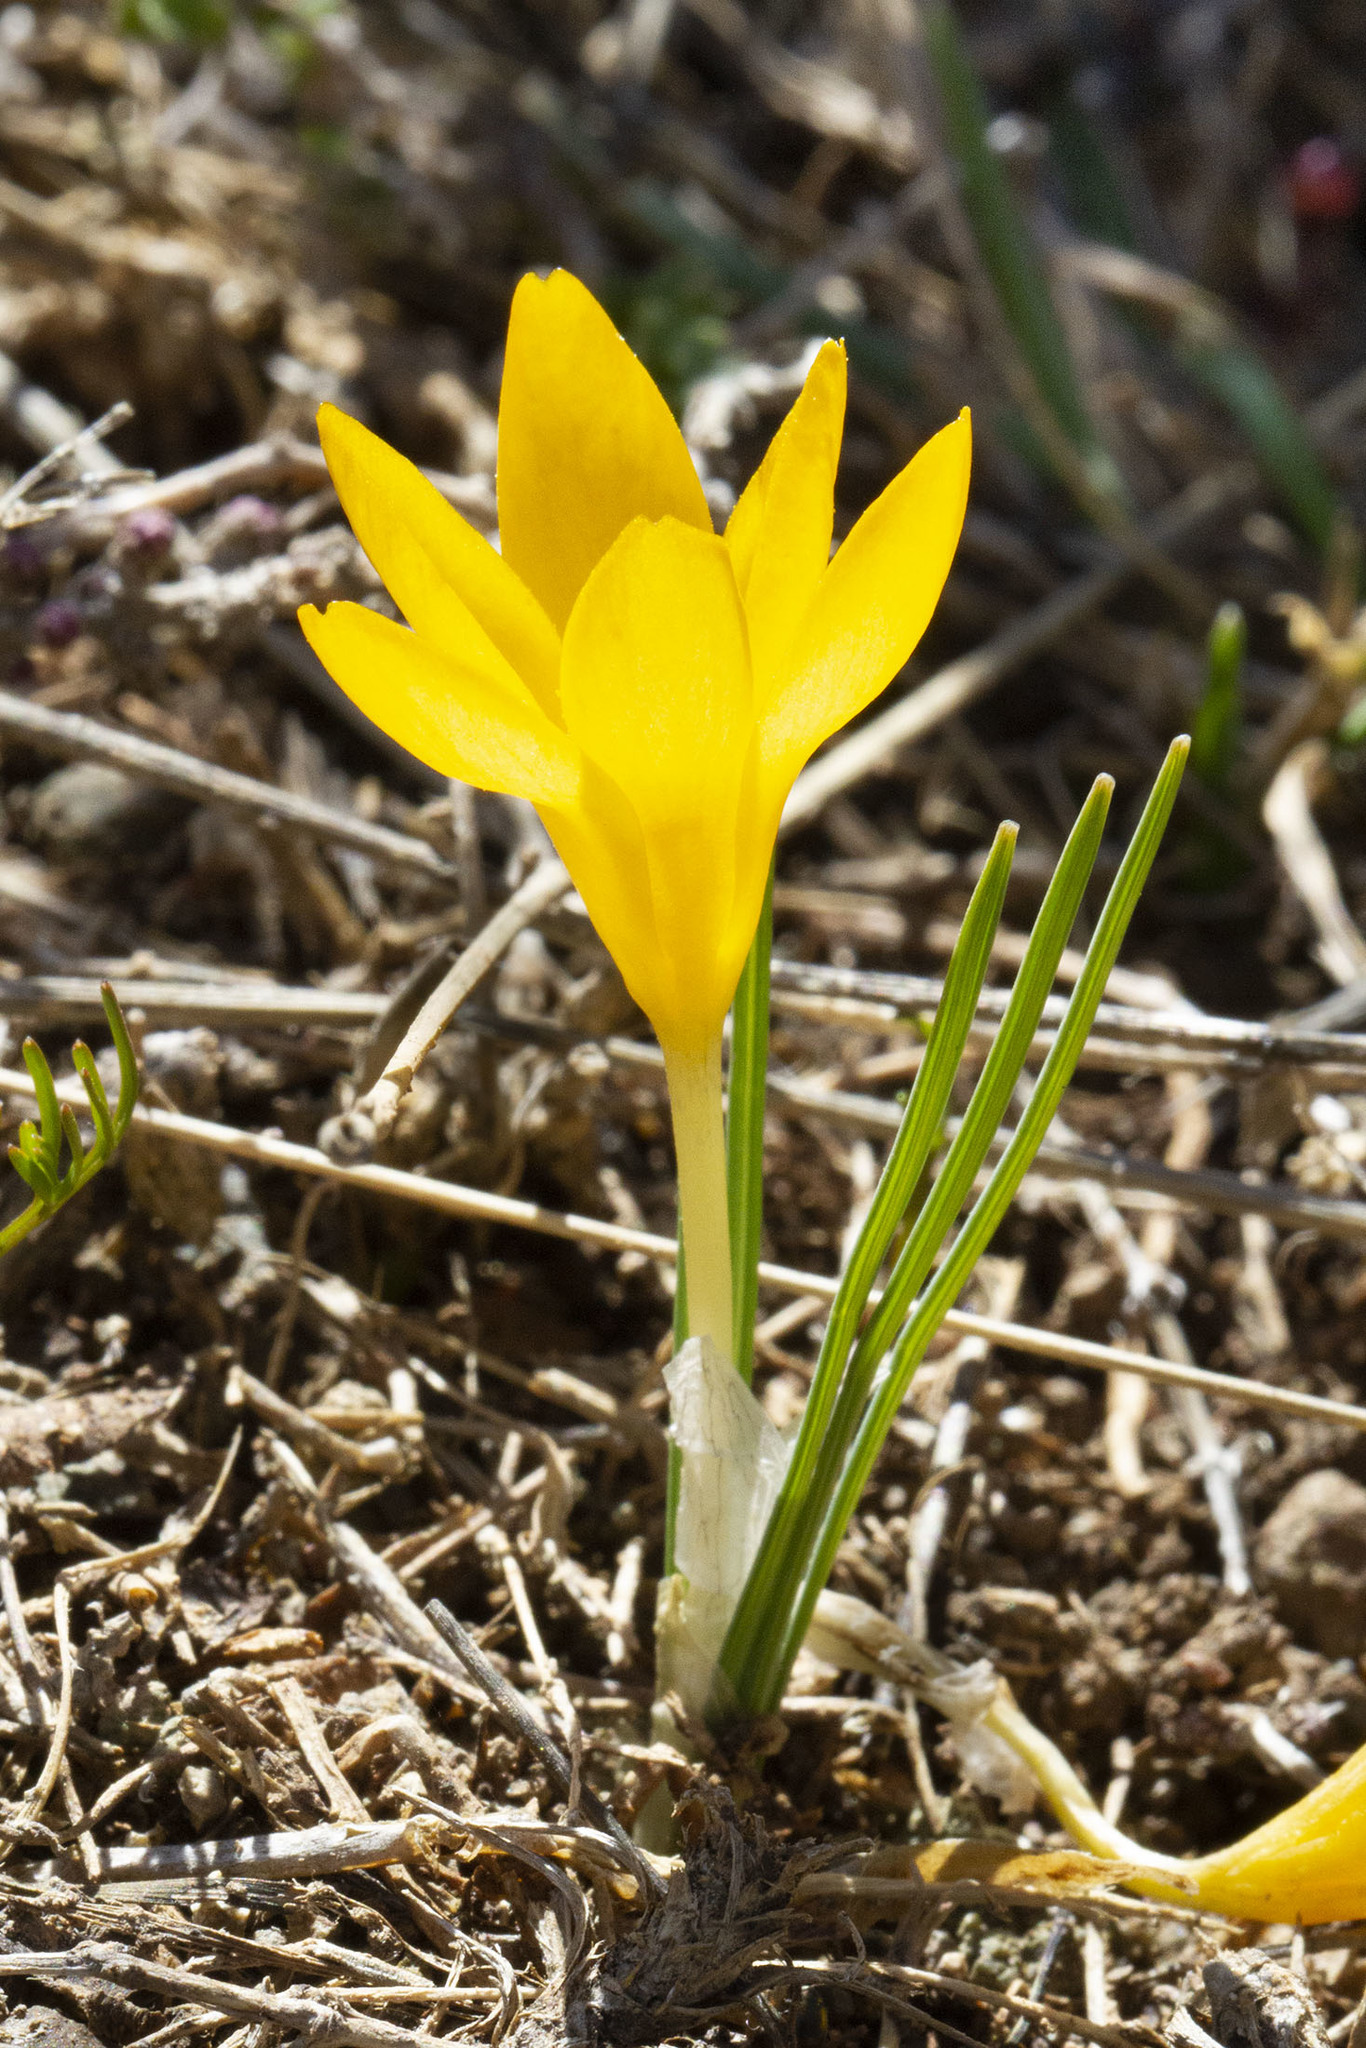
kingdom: Plantae
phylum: Tracheophyta
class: Liliopsida
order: Asparagales
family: Iridaceae
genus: Crocus
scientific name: Crocus ancyrensis
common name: Ankara crocus
